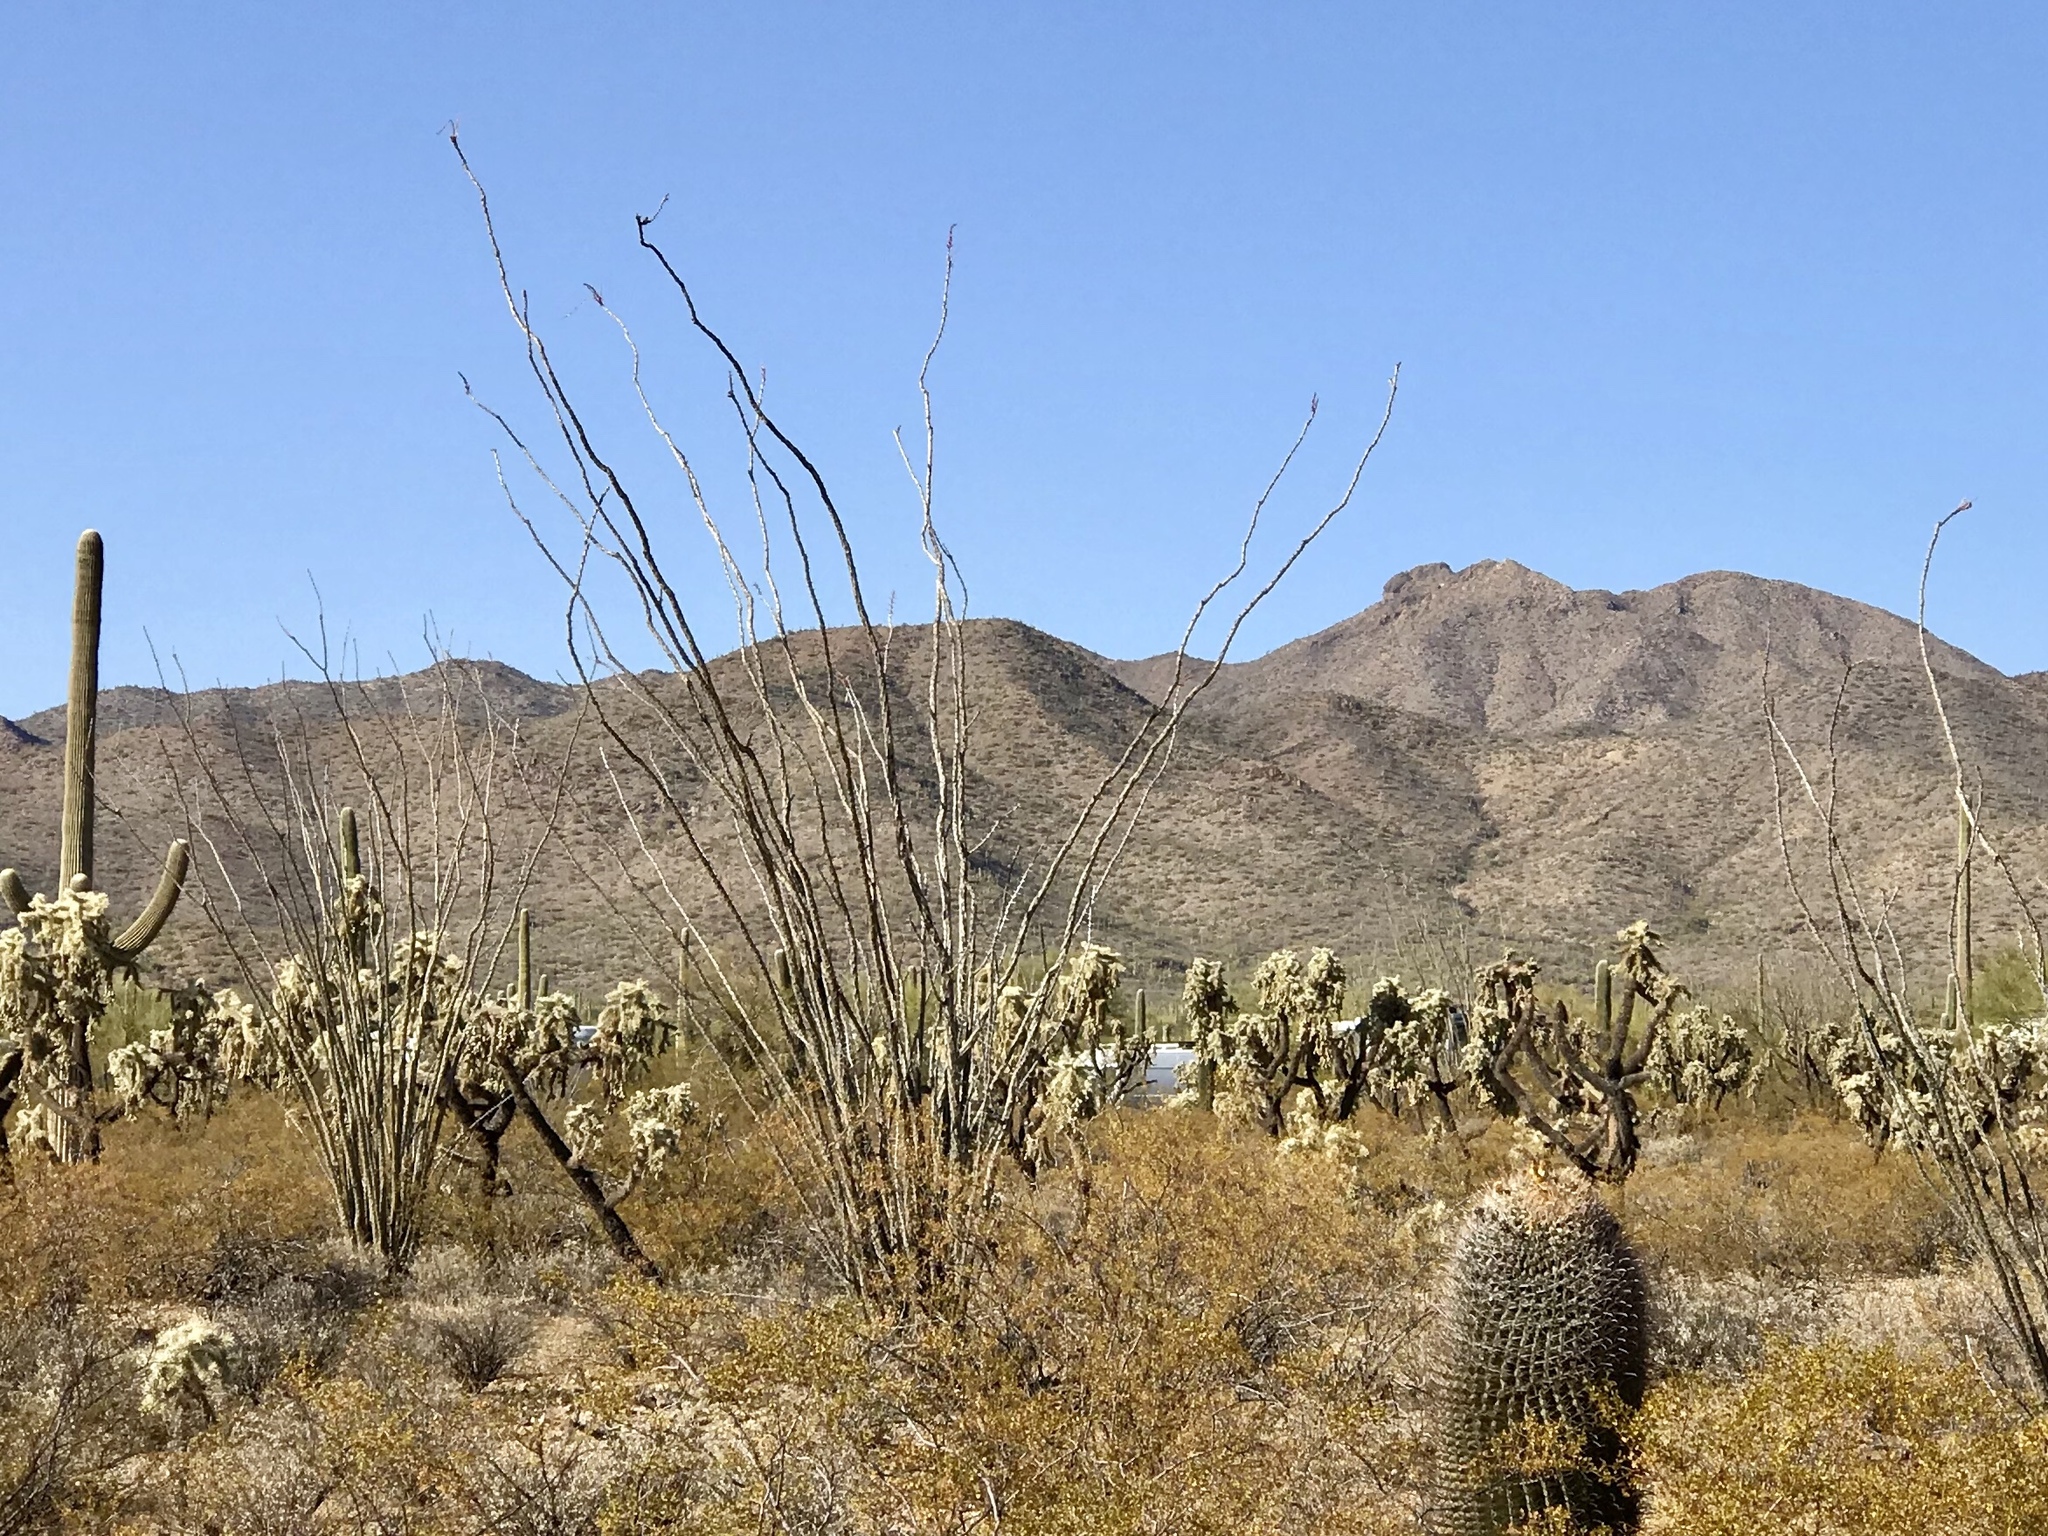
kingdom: Plantae
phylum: Tracheophyta
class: Magnoliopsida
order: Ericales
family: Fouquieriaceae
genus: Fouquieria
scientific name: Fouquieria splendens
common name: Vine-cactus
